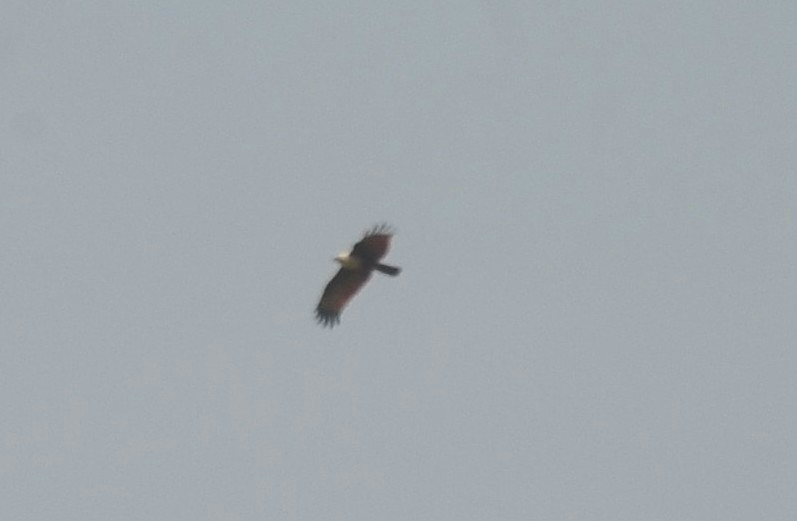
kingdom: Animalia
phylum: Chordata
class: Aves
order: Accipitriformes
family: Accipitridae
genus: Haliastur
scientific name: Haliastur indus
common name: Brahminy kite
